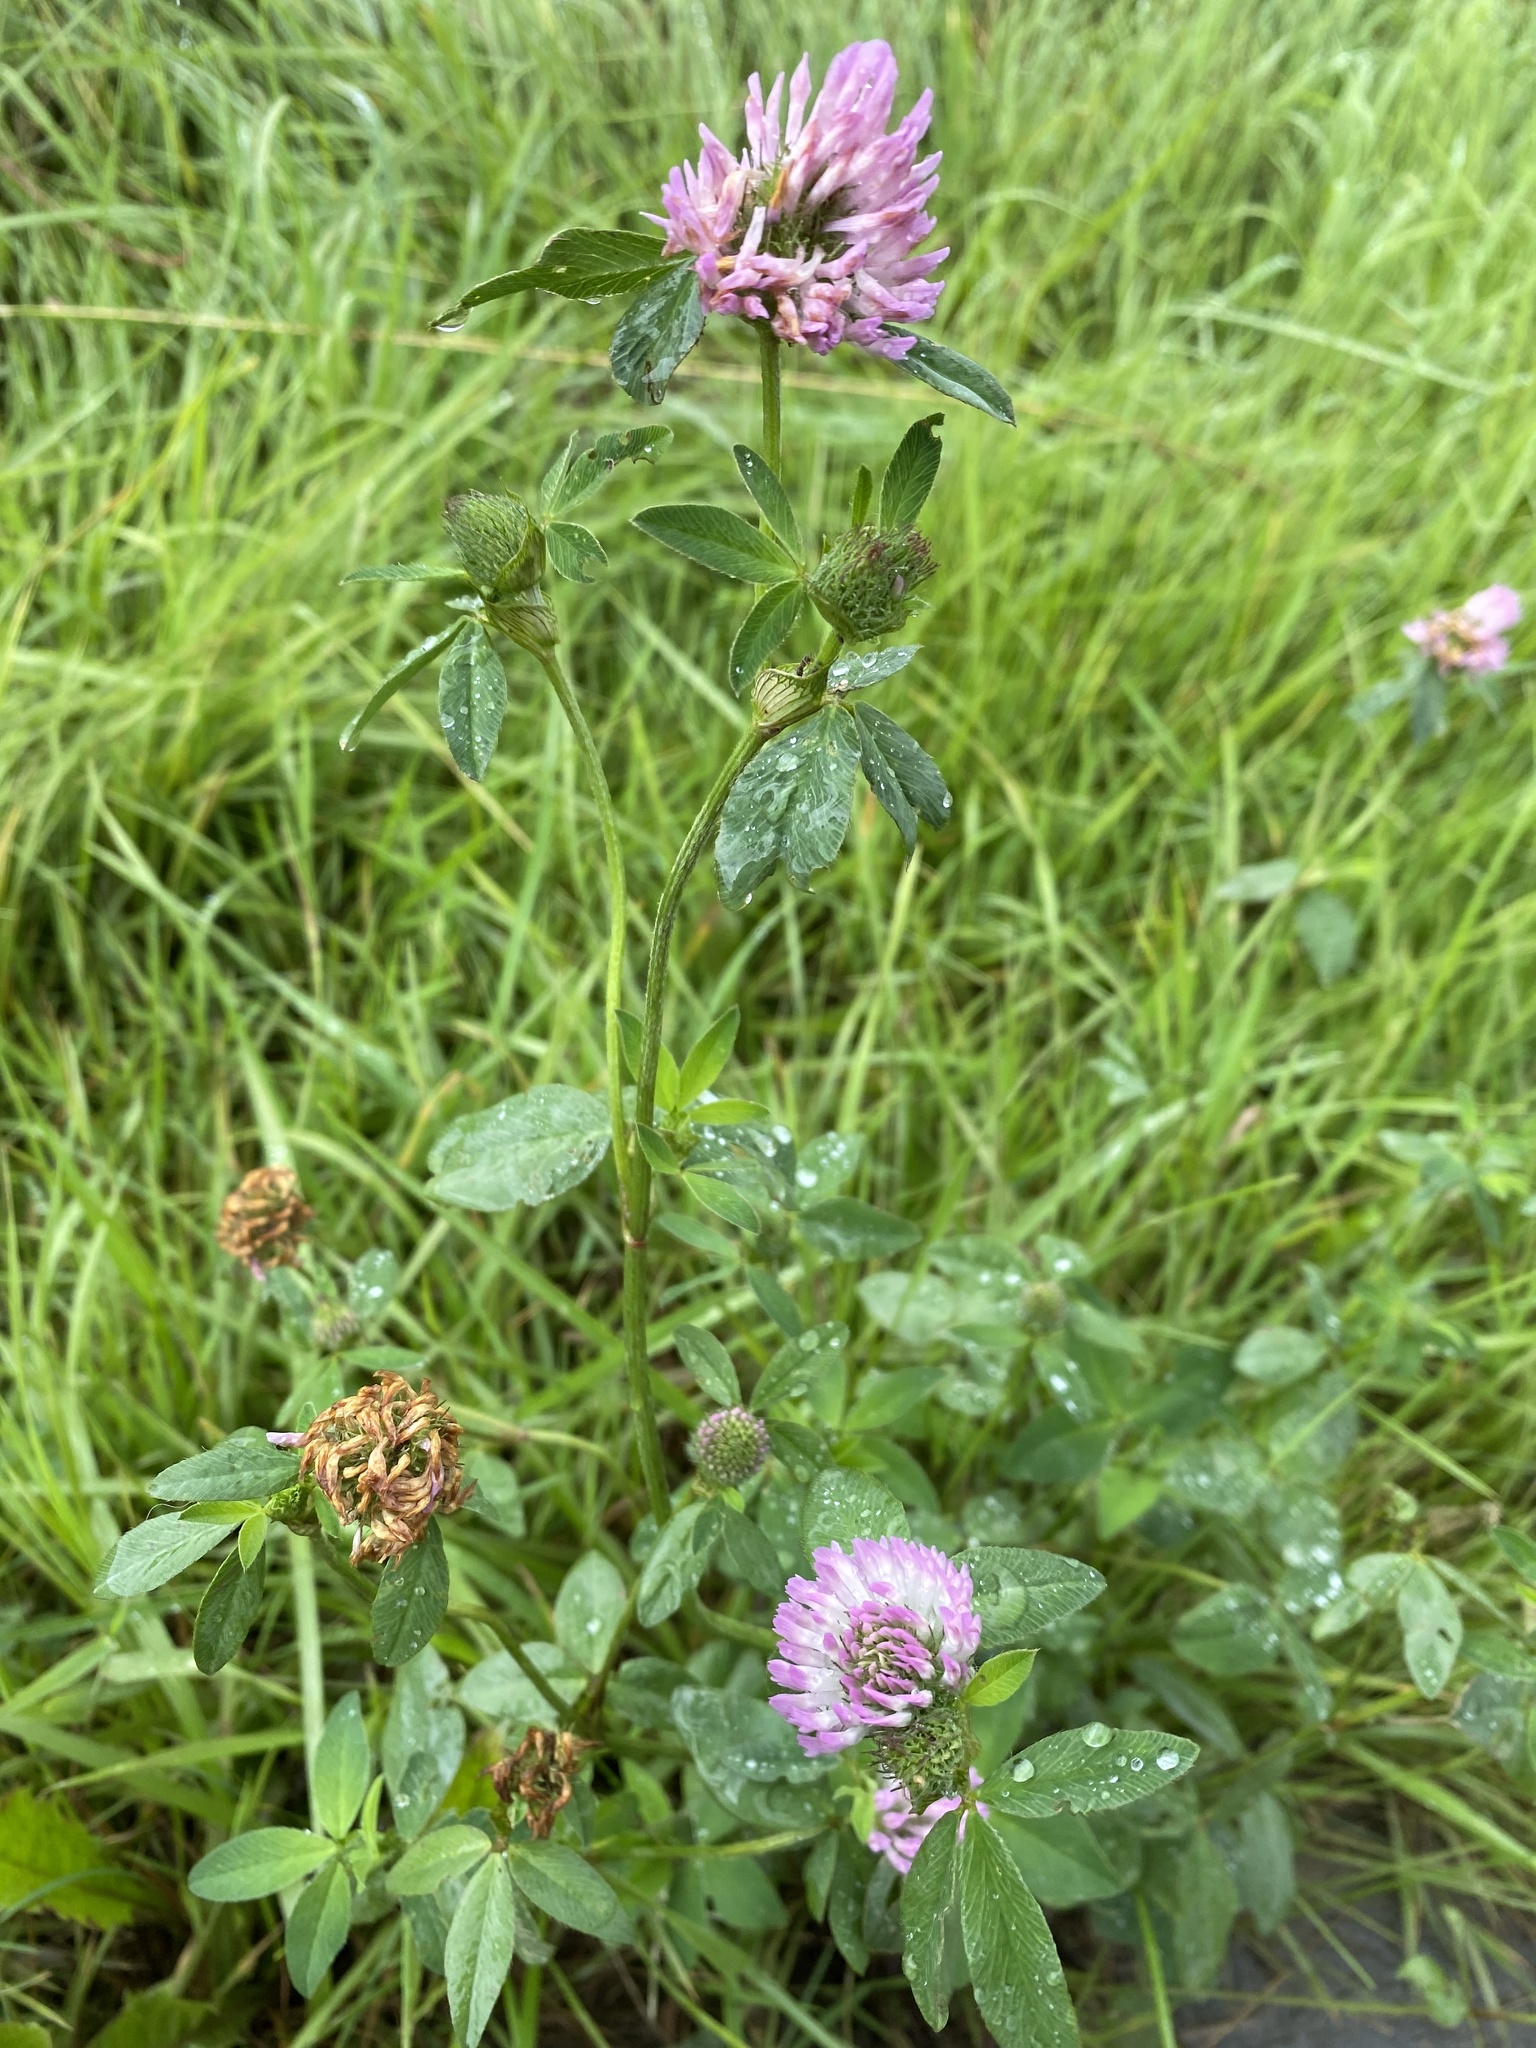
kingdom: Plantae
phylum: Tracheophyta
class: Magnoliopsida
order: Fabales
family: Fabaceae
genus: Trifolium
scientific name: Trifolium pratense
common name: Red clover
